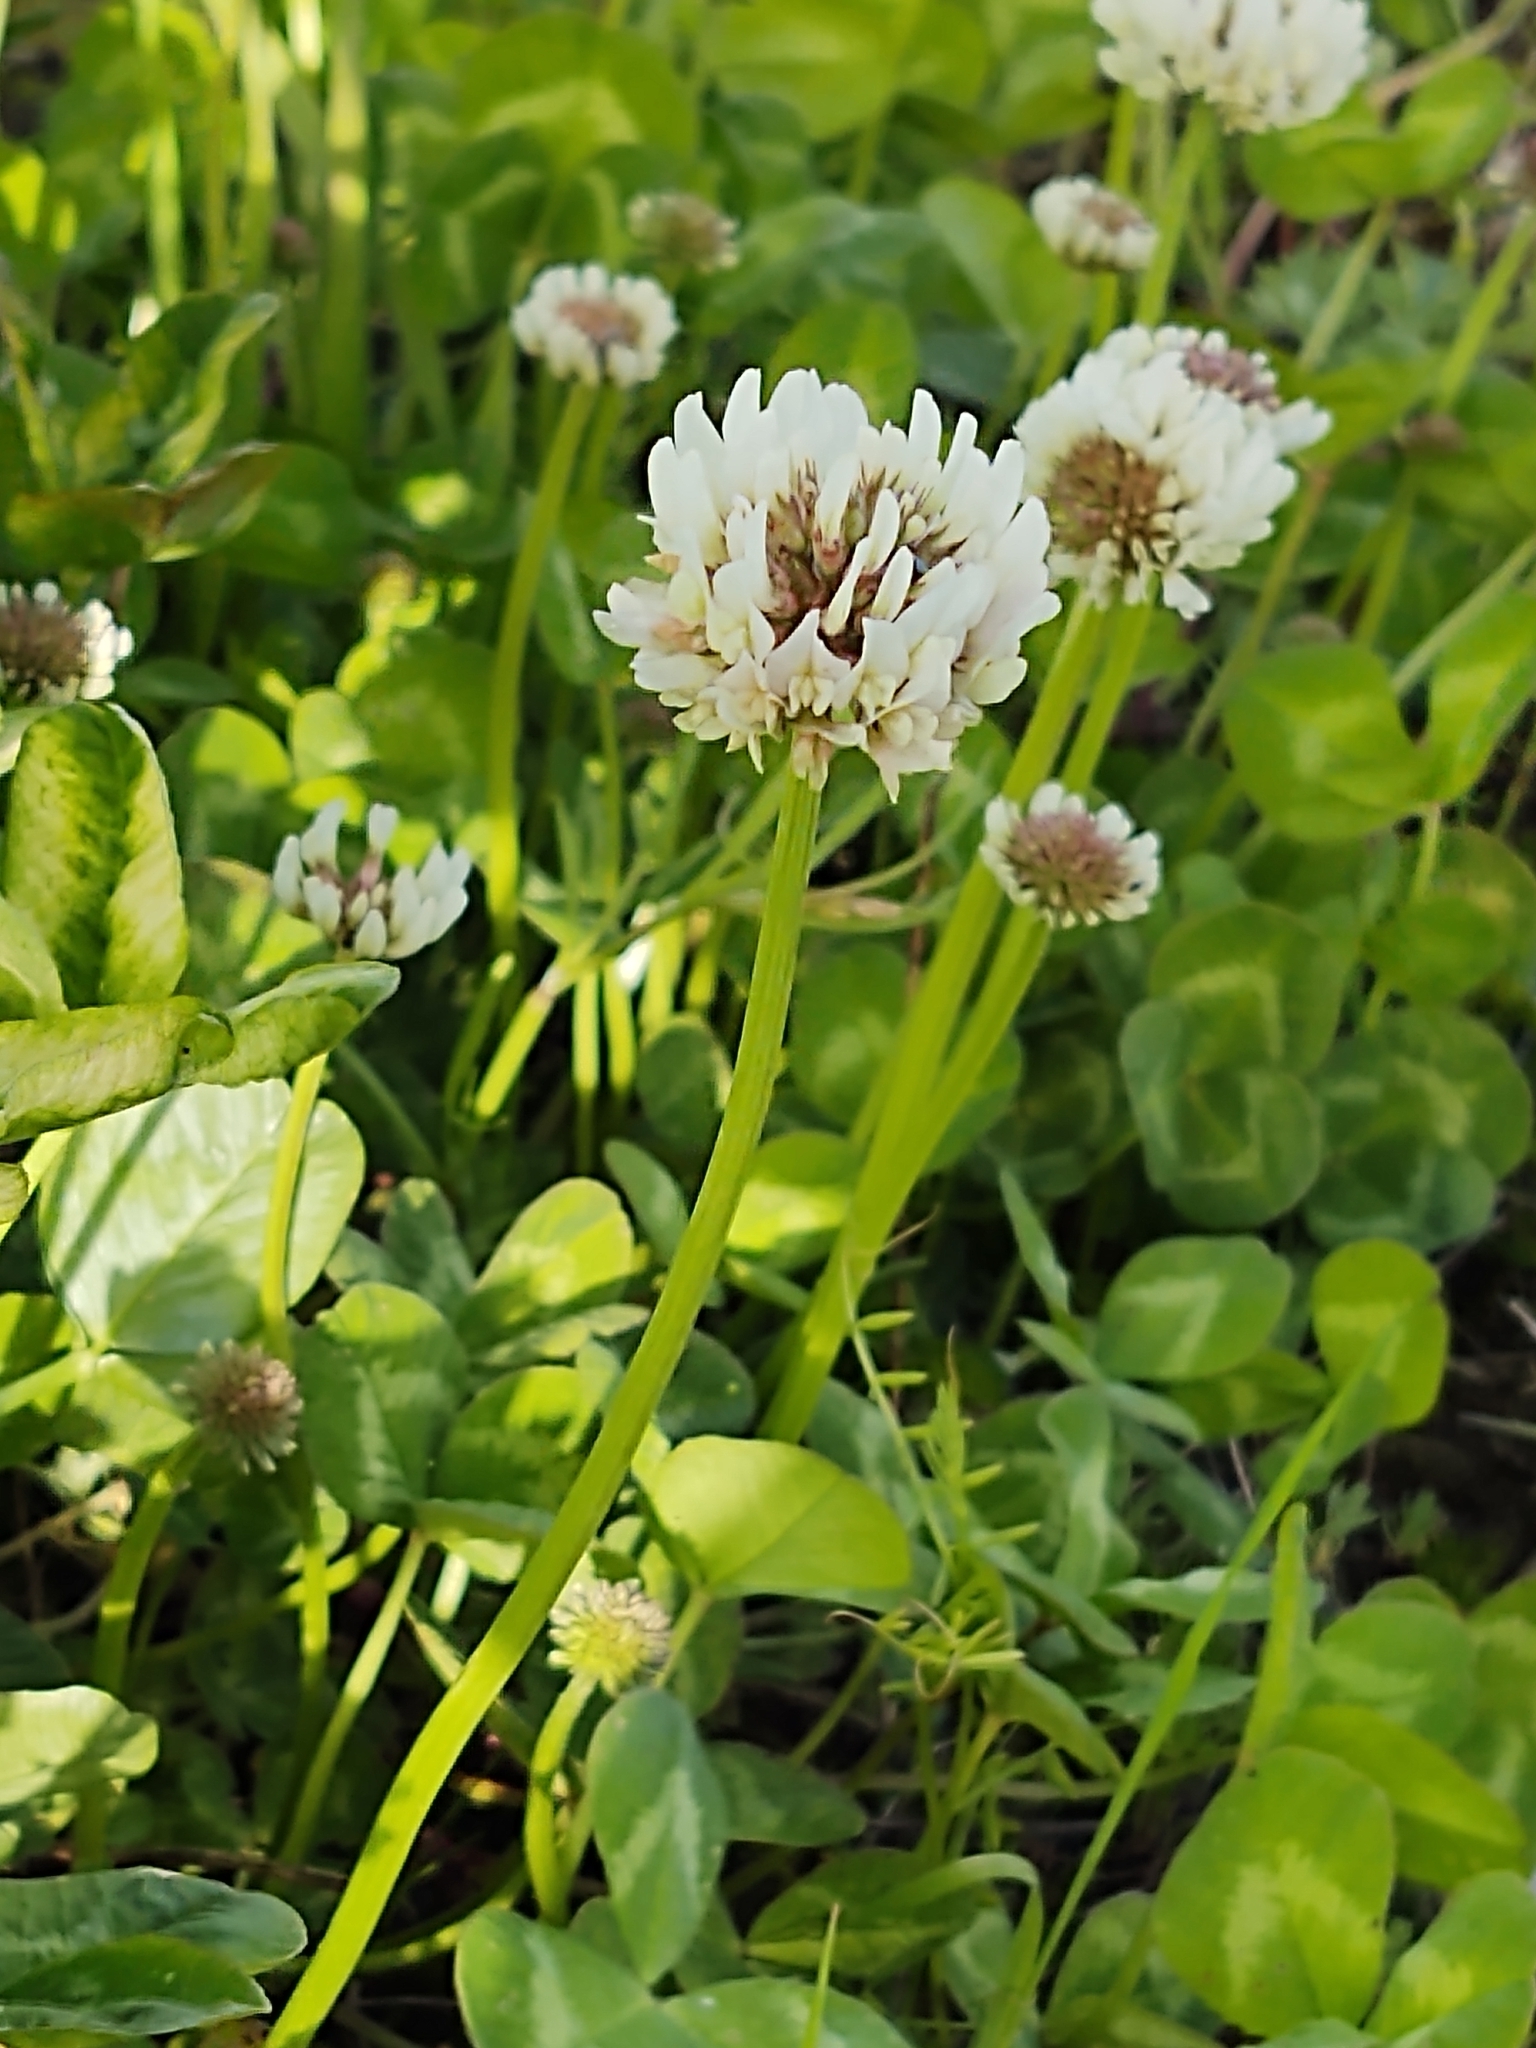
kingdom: Plantae
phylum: Tracheophyta
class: Magnoliopsida
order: Fabales
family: Fabaceae
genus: Trifolium
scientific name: Trifolium repens
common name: White clover
